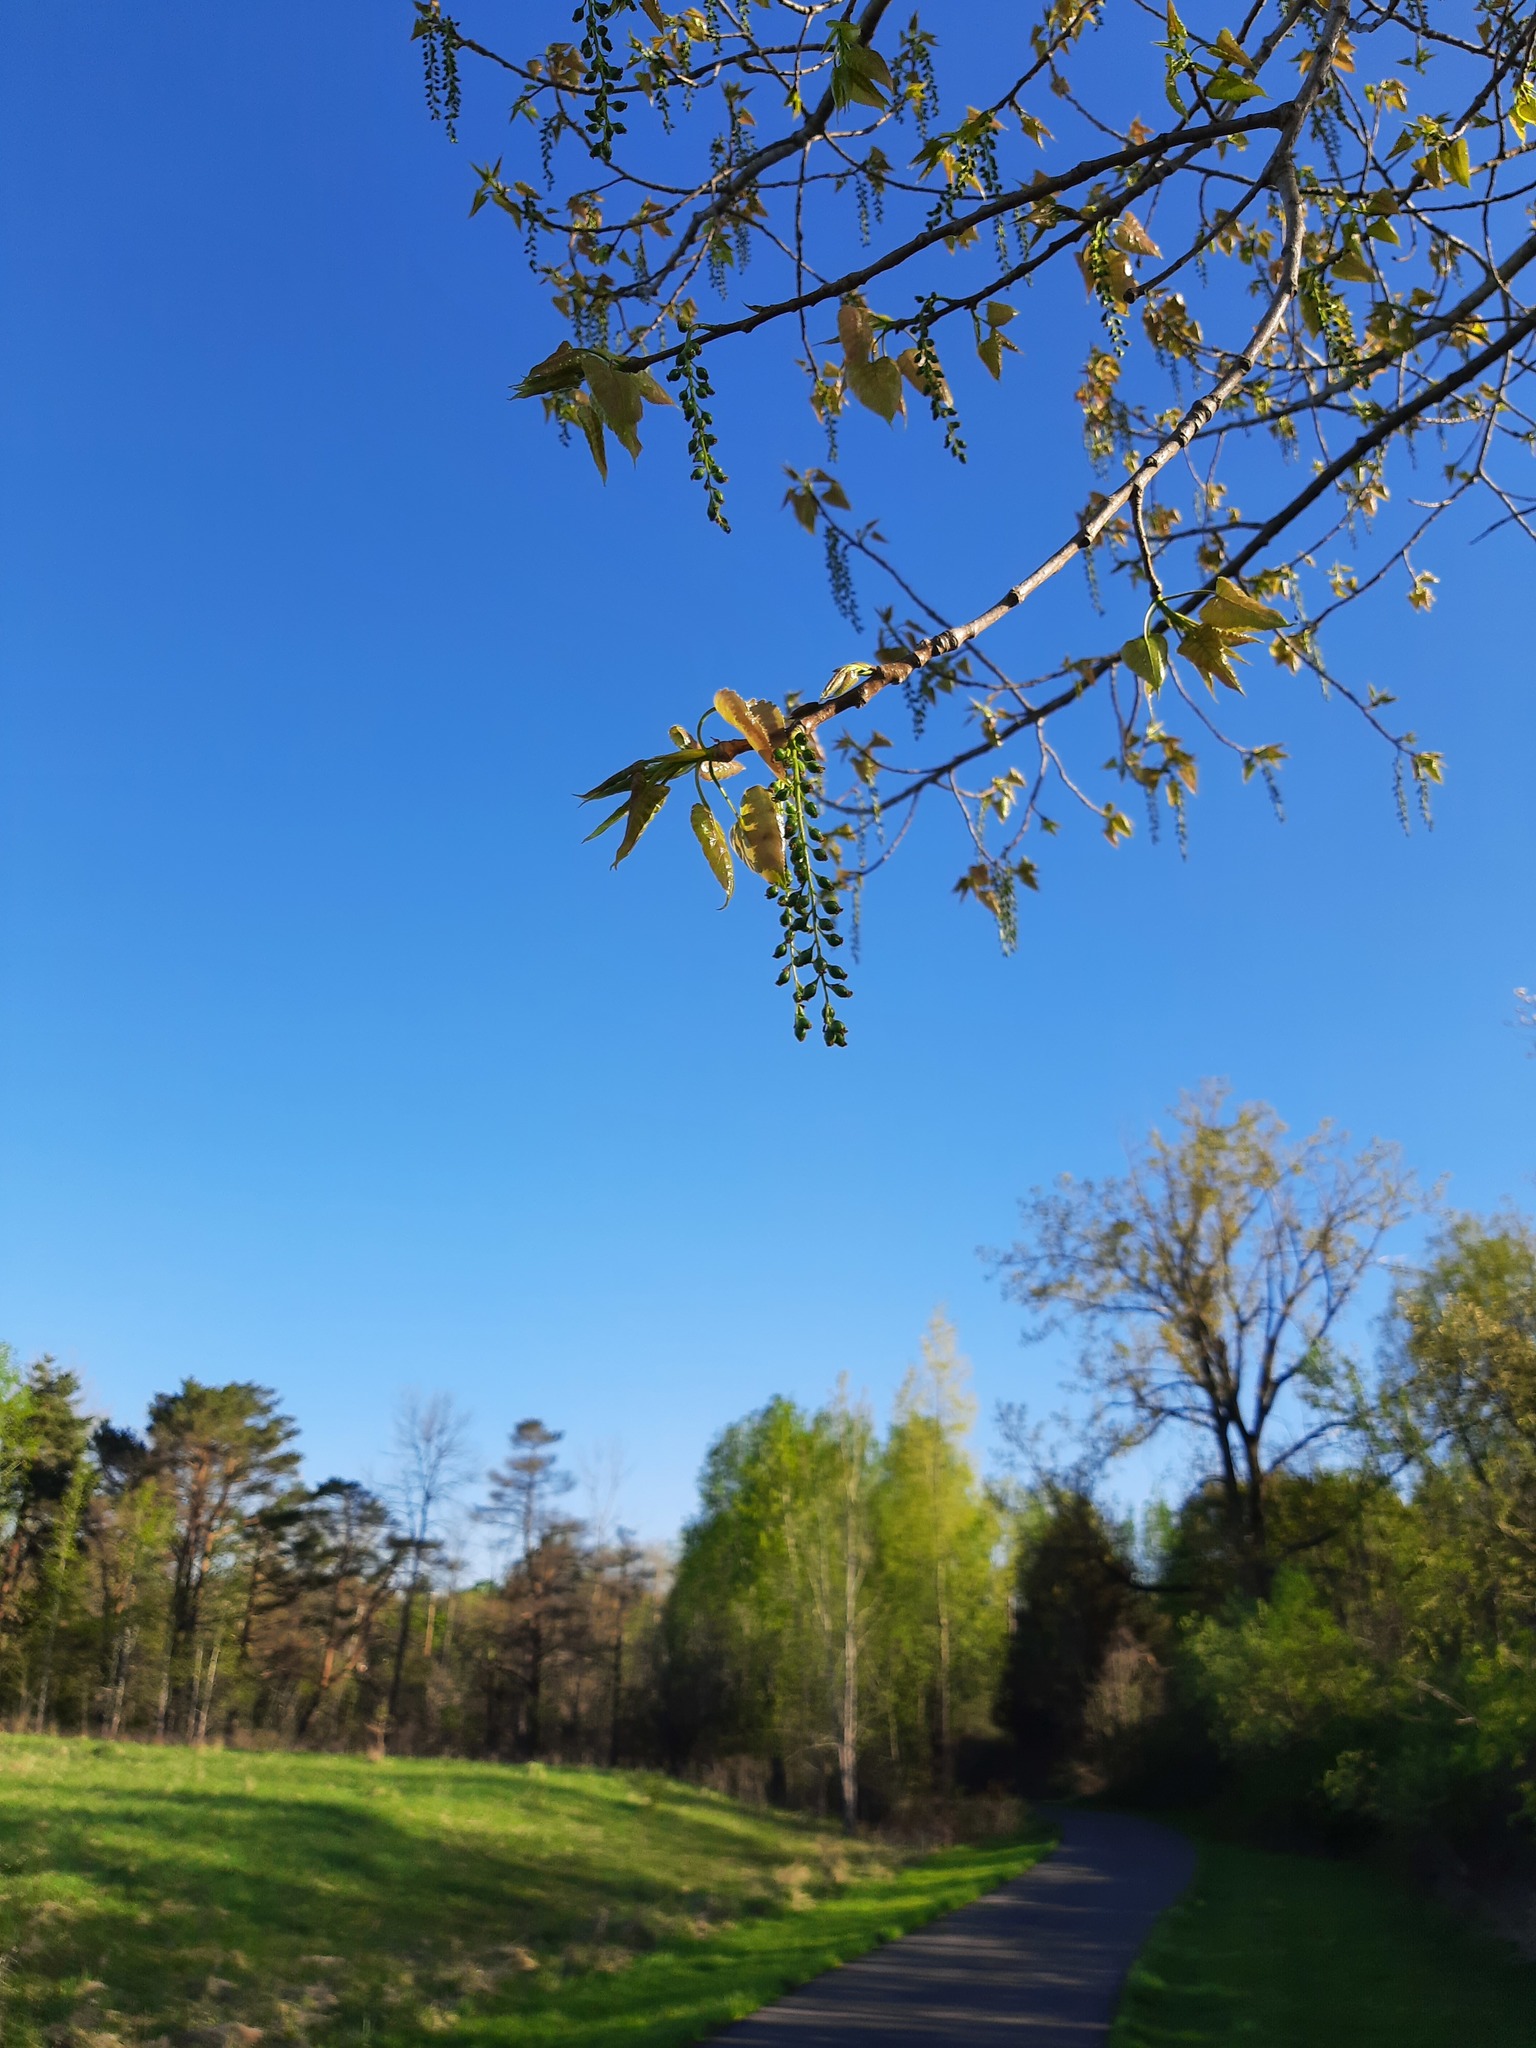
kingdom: Plantae
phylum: Tracheophyta
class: Magnoliopsida
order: Malpighiales
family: Salicaceae
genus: Populus
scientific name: Populus deltoides
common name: Eastern cottonwood
